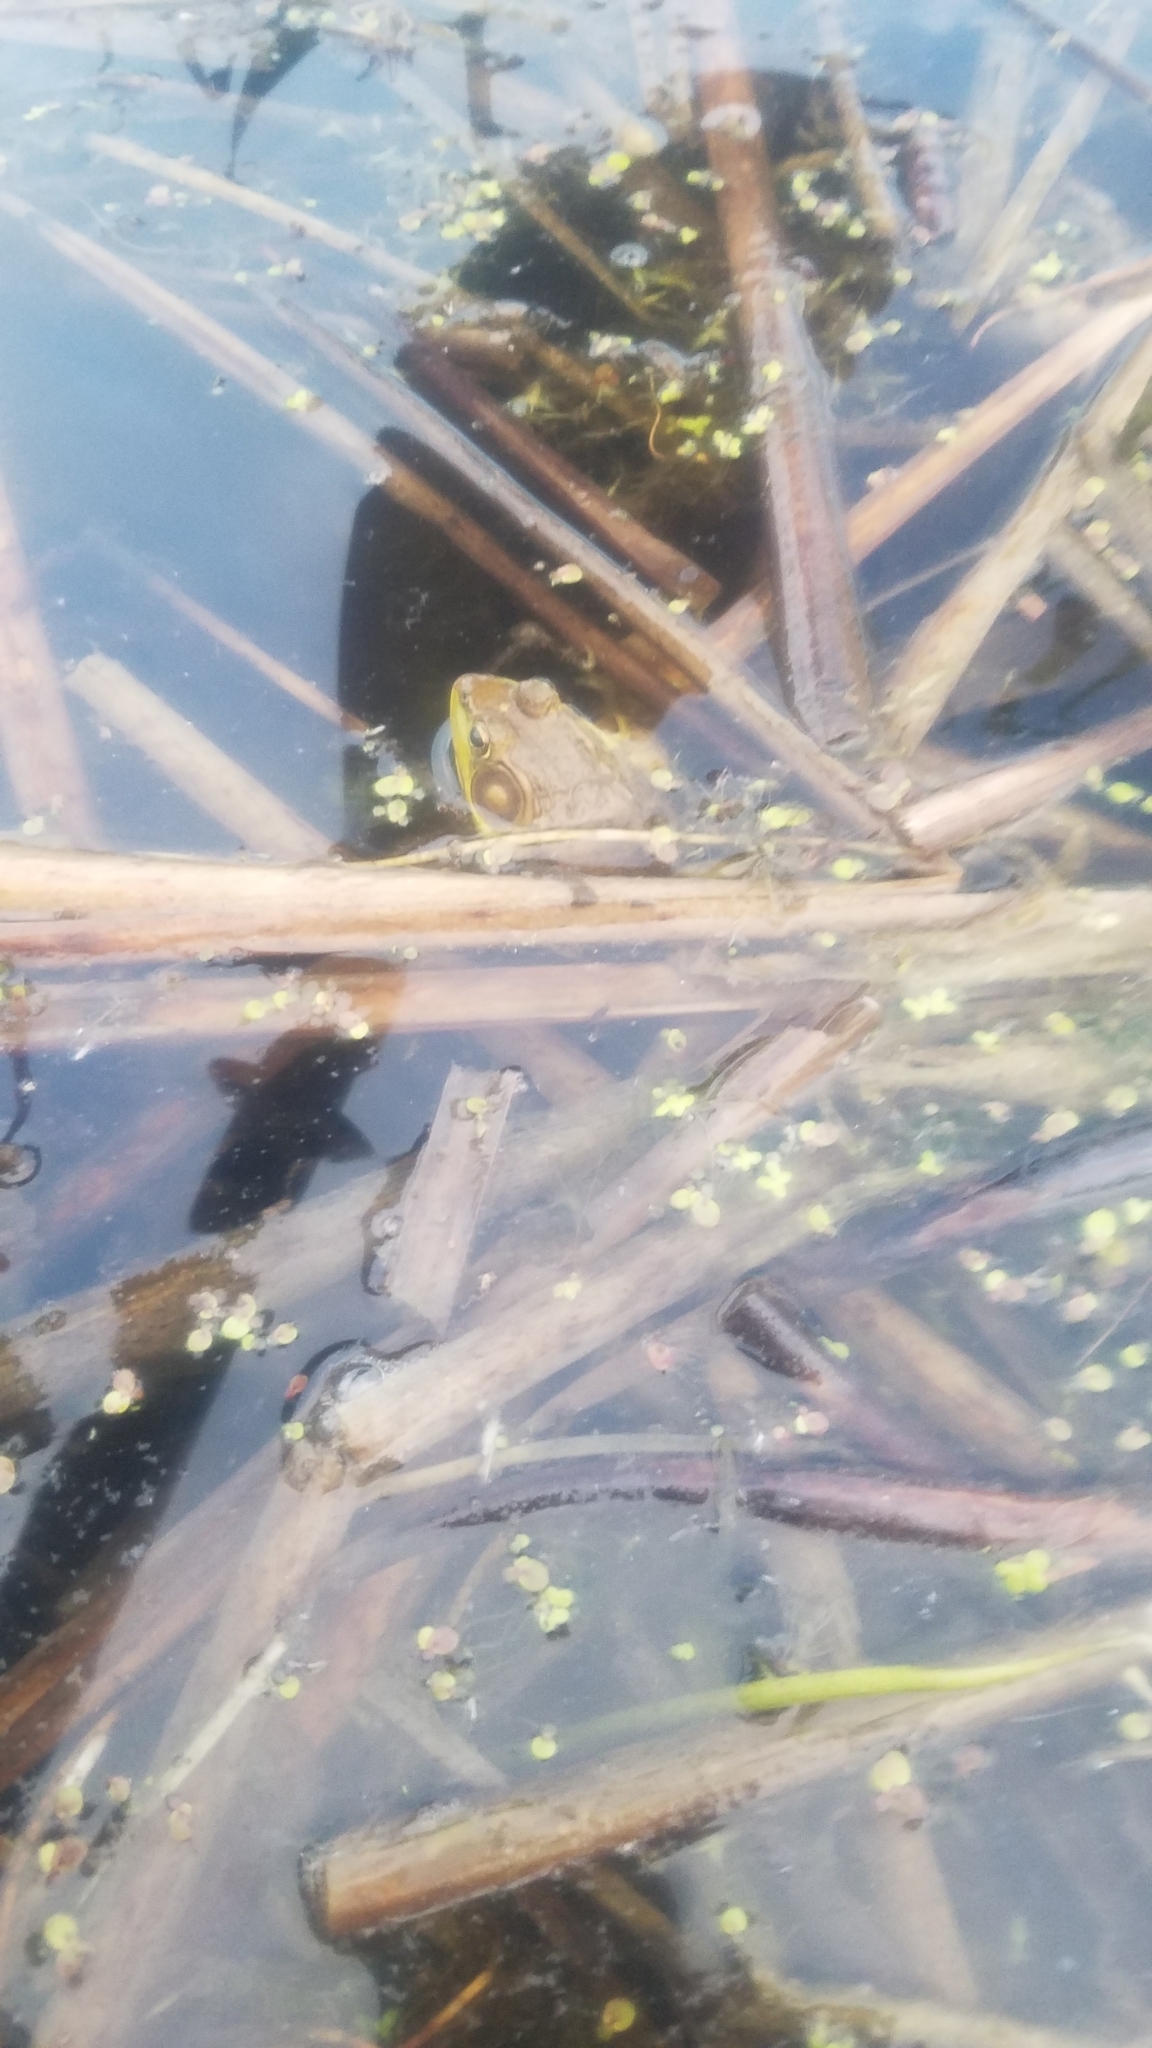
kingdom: Animalia
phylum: Chordata
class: Amphibia
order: Anura
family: Ranidae
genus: Lithobates
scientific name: Lithobates clamitans
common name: Green frog
